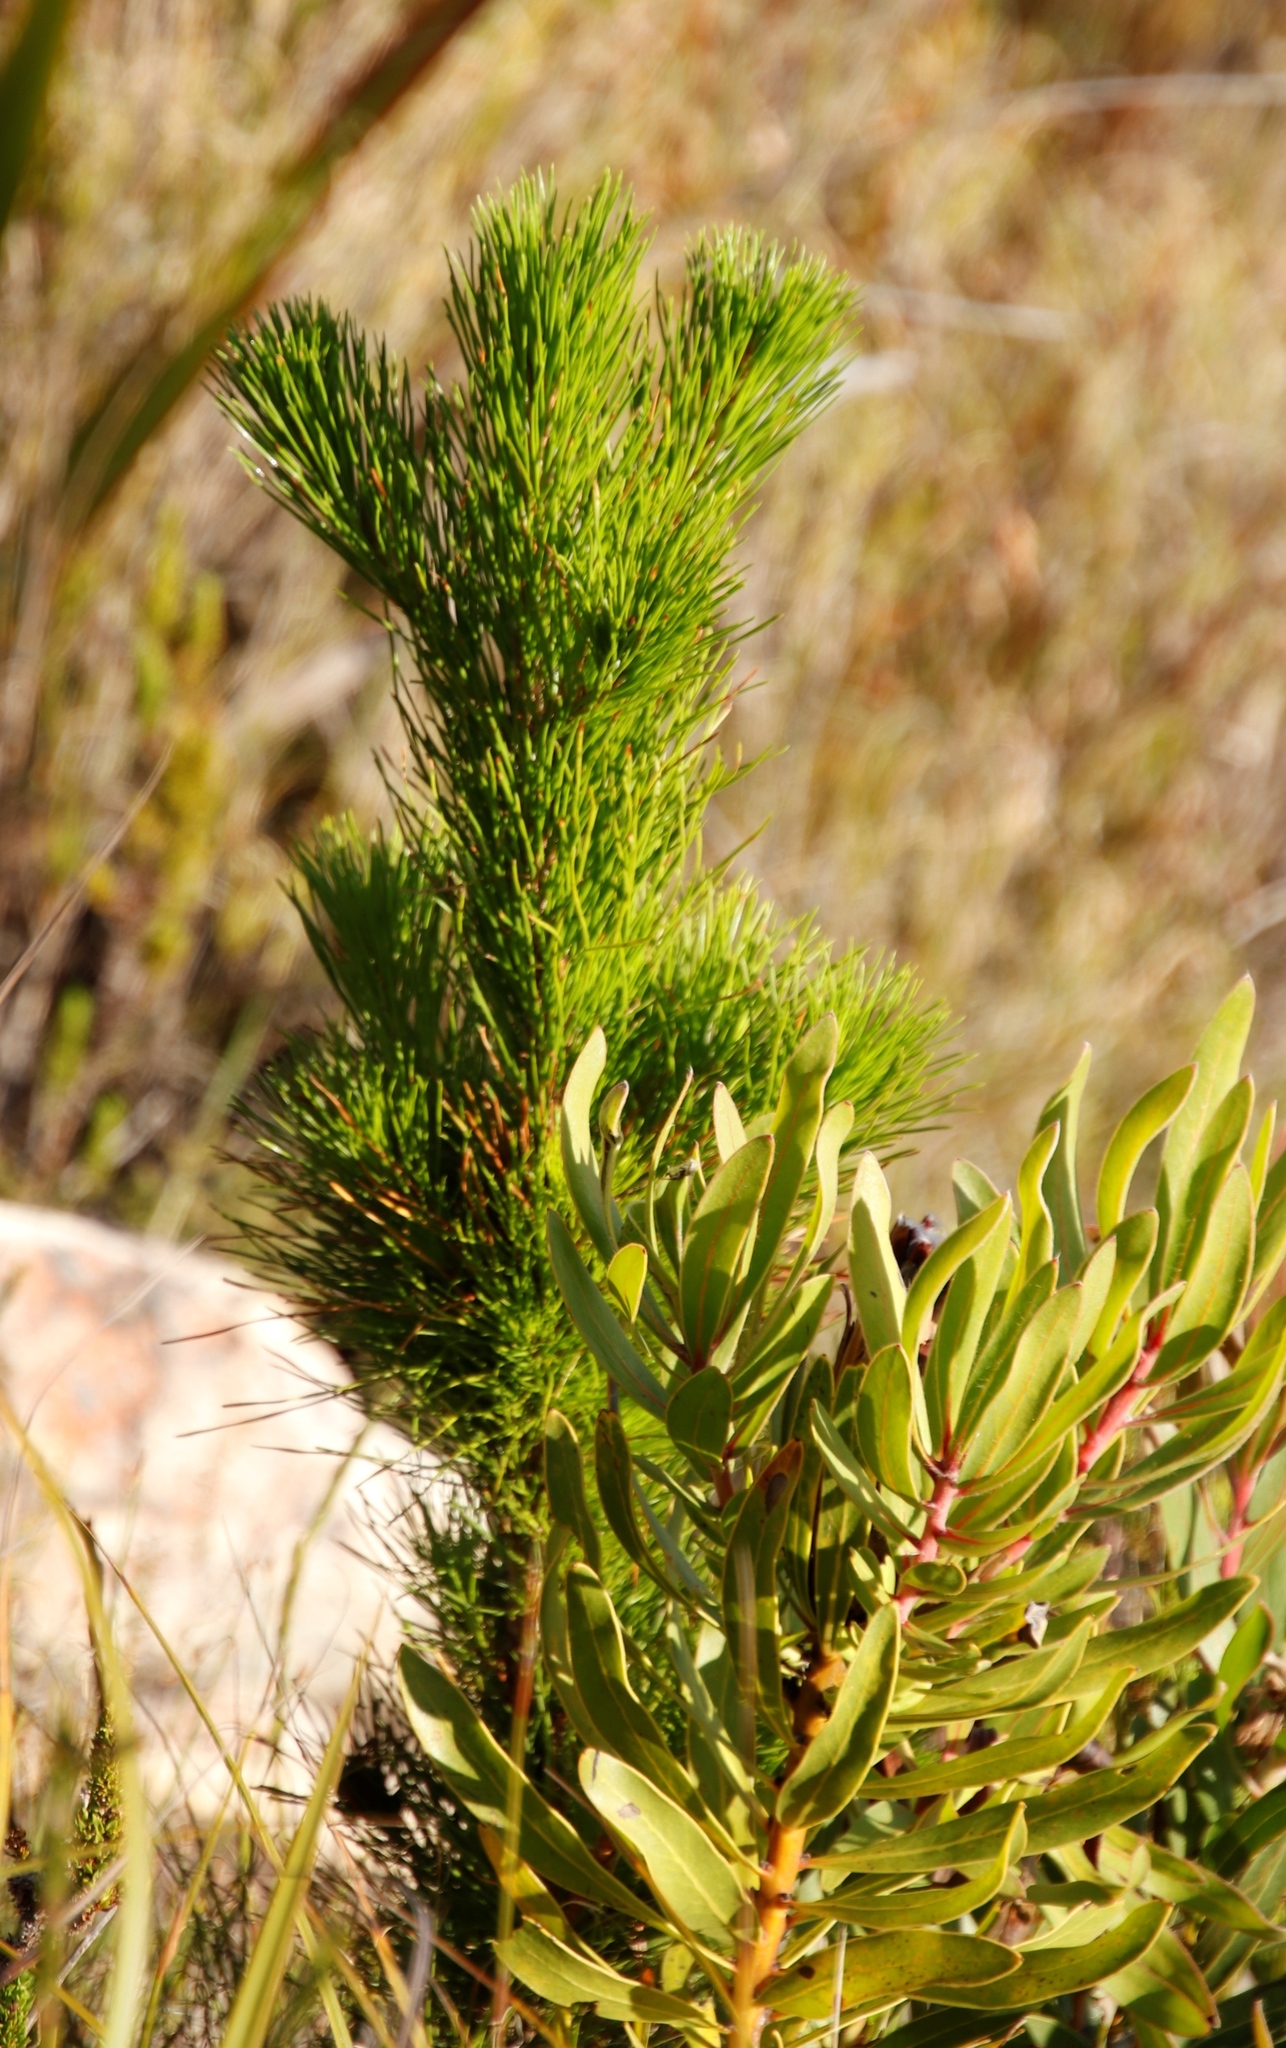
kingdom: Plantae
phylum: Tracheophyta
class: Pinopsida
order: Pinales
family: Pinaceae
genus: Pinus
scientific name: Pinus radiata
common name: Monterey pine
